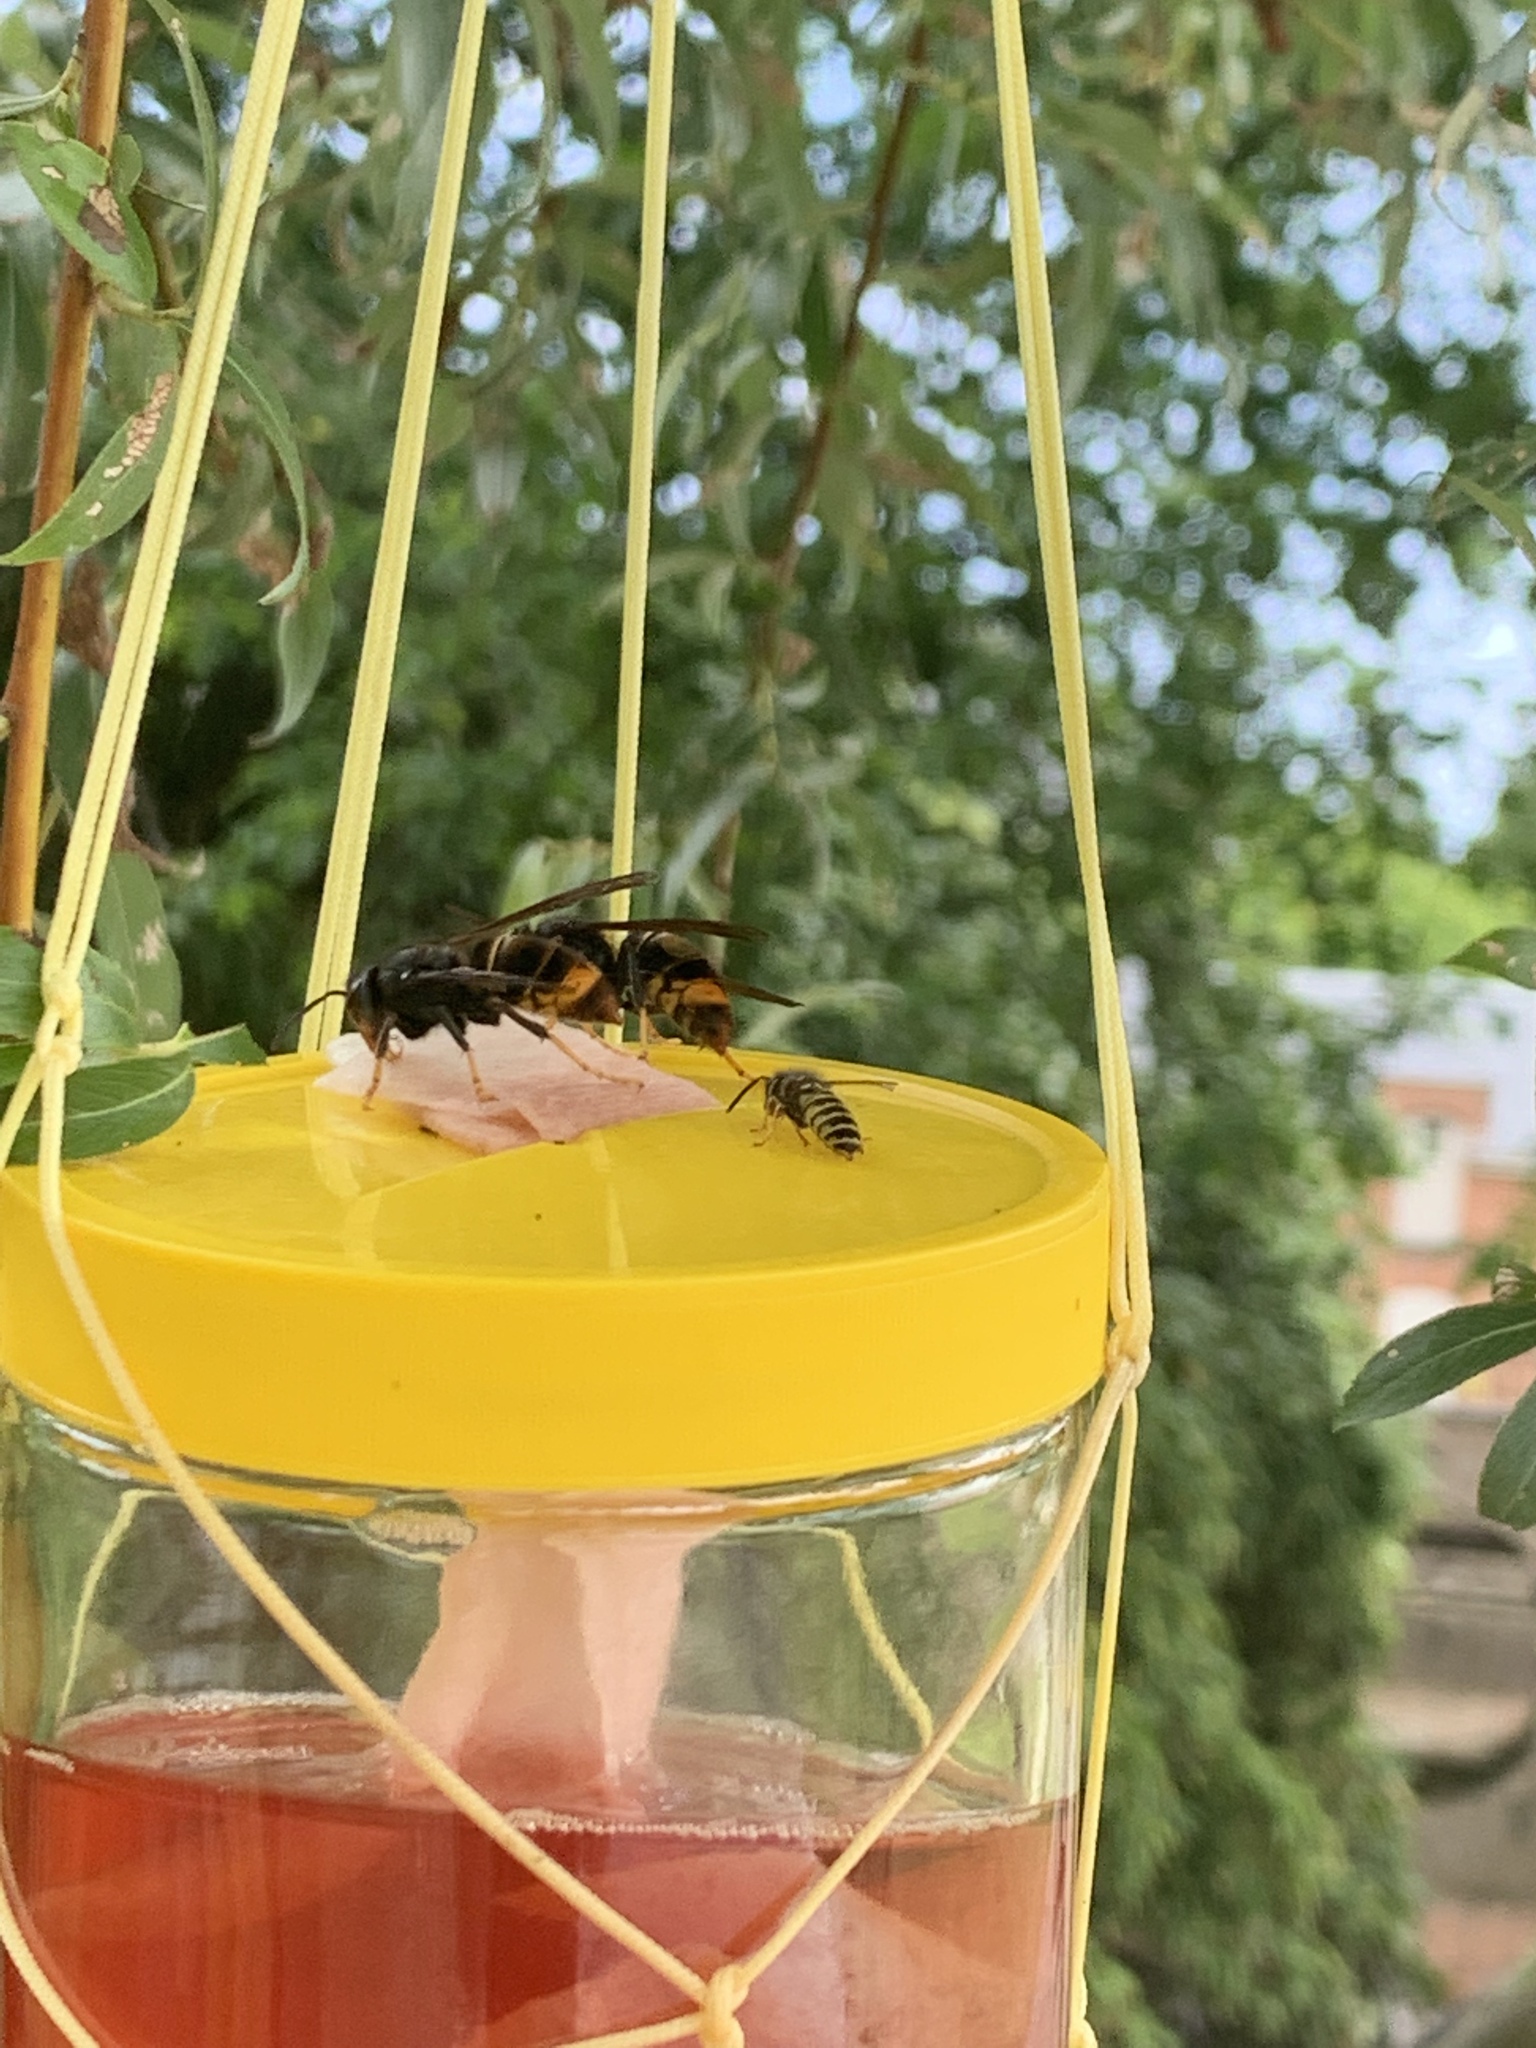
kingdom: Animalia
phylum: Arthropoda
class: Insecta
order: Hymenoptera
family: Vespidae
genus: Vespa
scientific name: Vespa velutina
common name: Asian hornet
